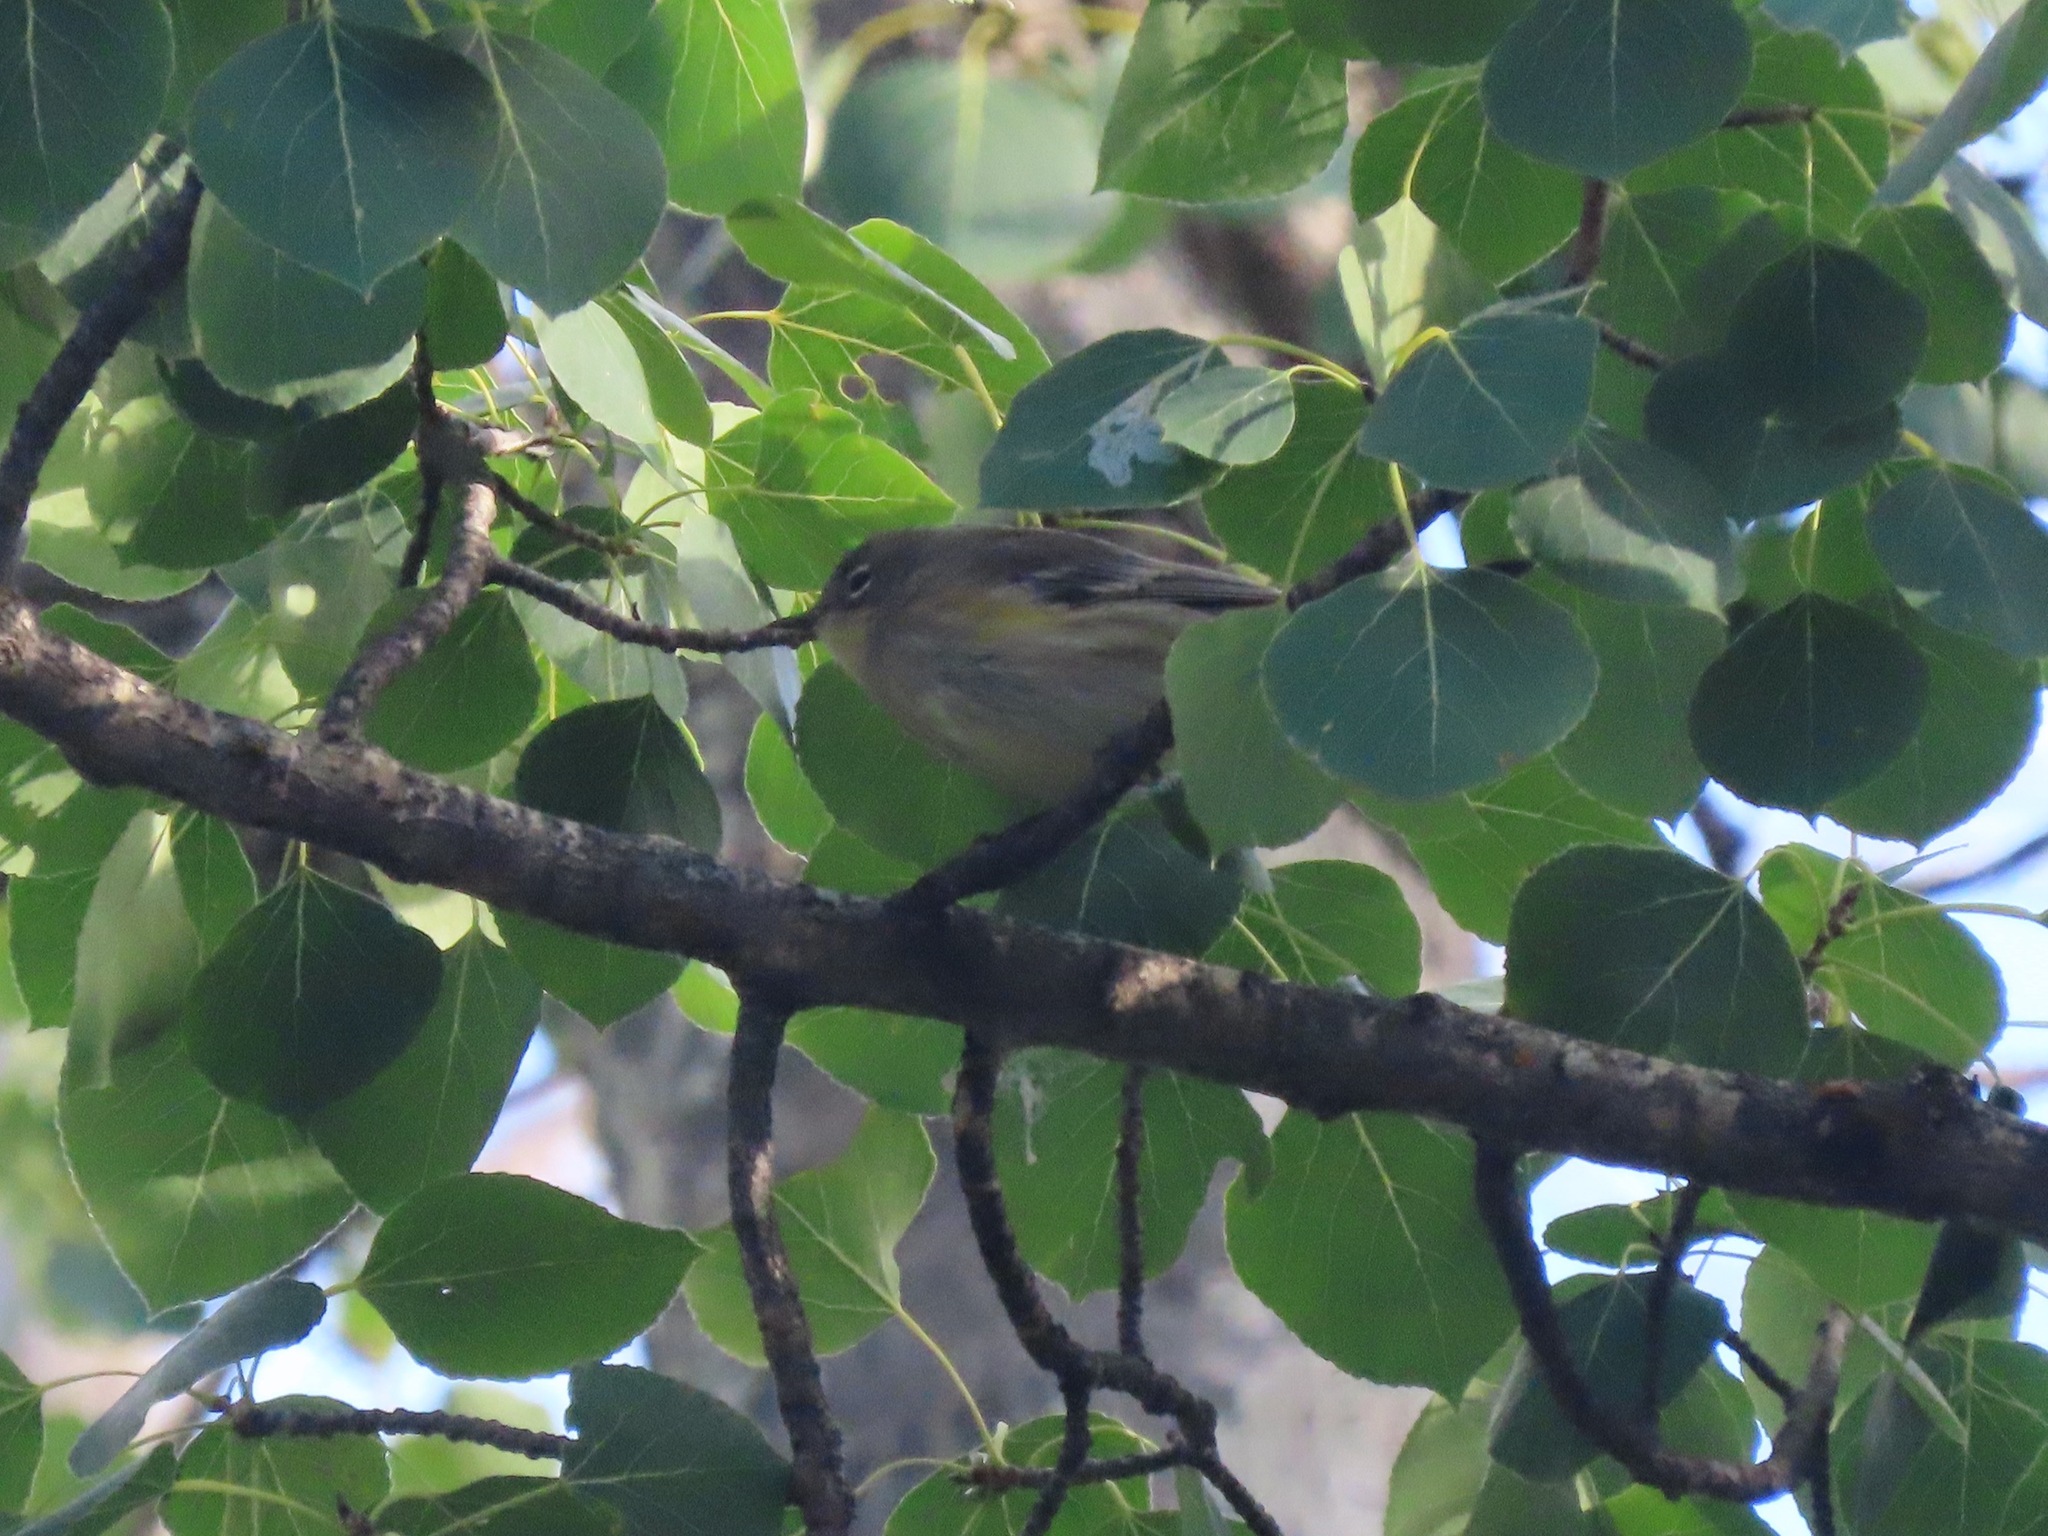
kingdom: Animalia
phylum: Chordata
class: Aves
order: Passeriformes
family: Parulidae
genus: Setophaga
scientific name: Setophaga coronata
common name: Myrtle warbler
